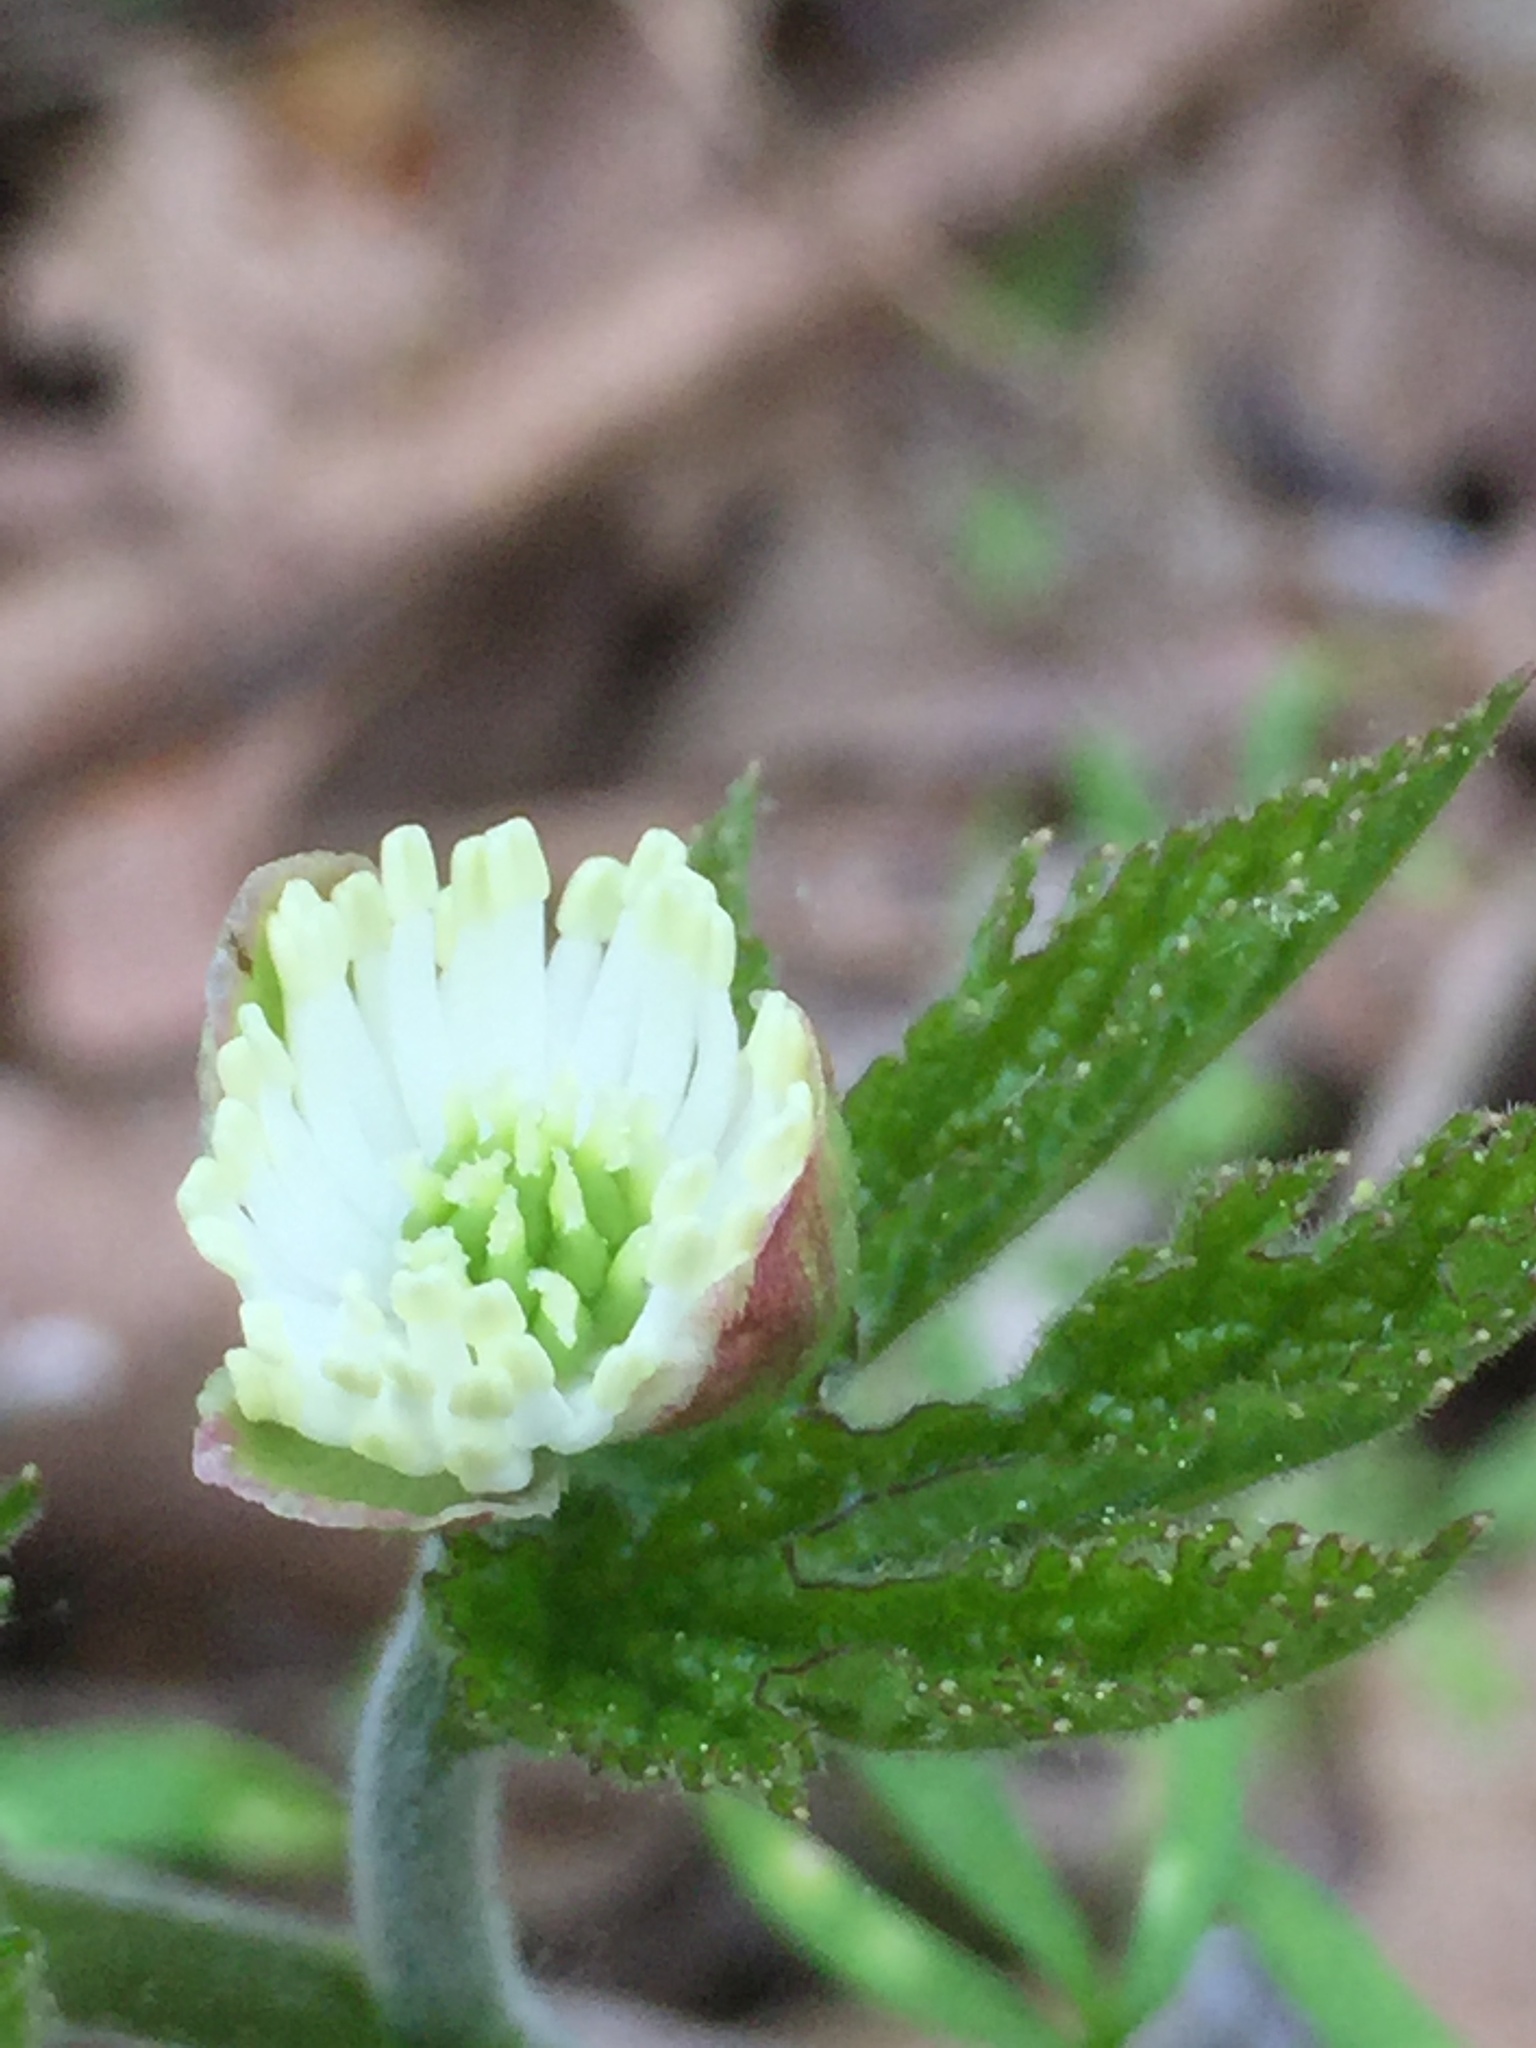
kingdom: Plantae
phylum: Tracheophyta
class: Magnoliopsida
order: Ranunculales
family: Ranunculaceae
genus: Hydrastis
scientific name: Hydrastis canadensis
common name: Goldenseal
